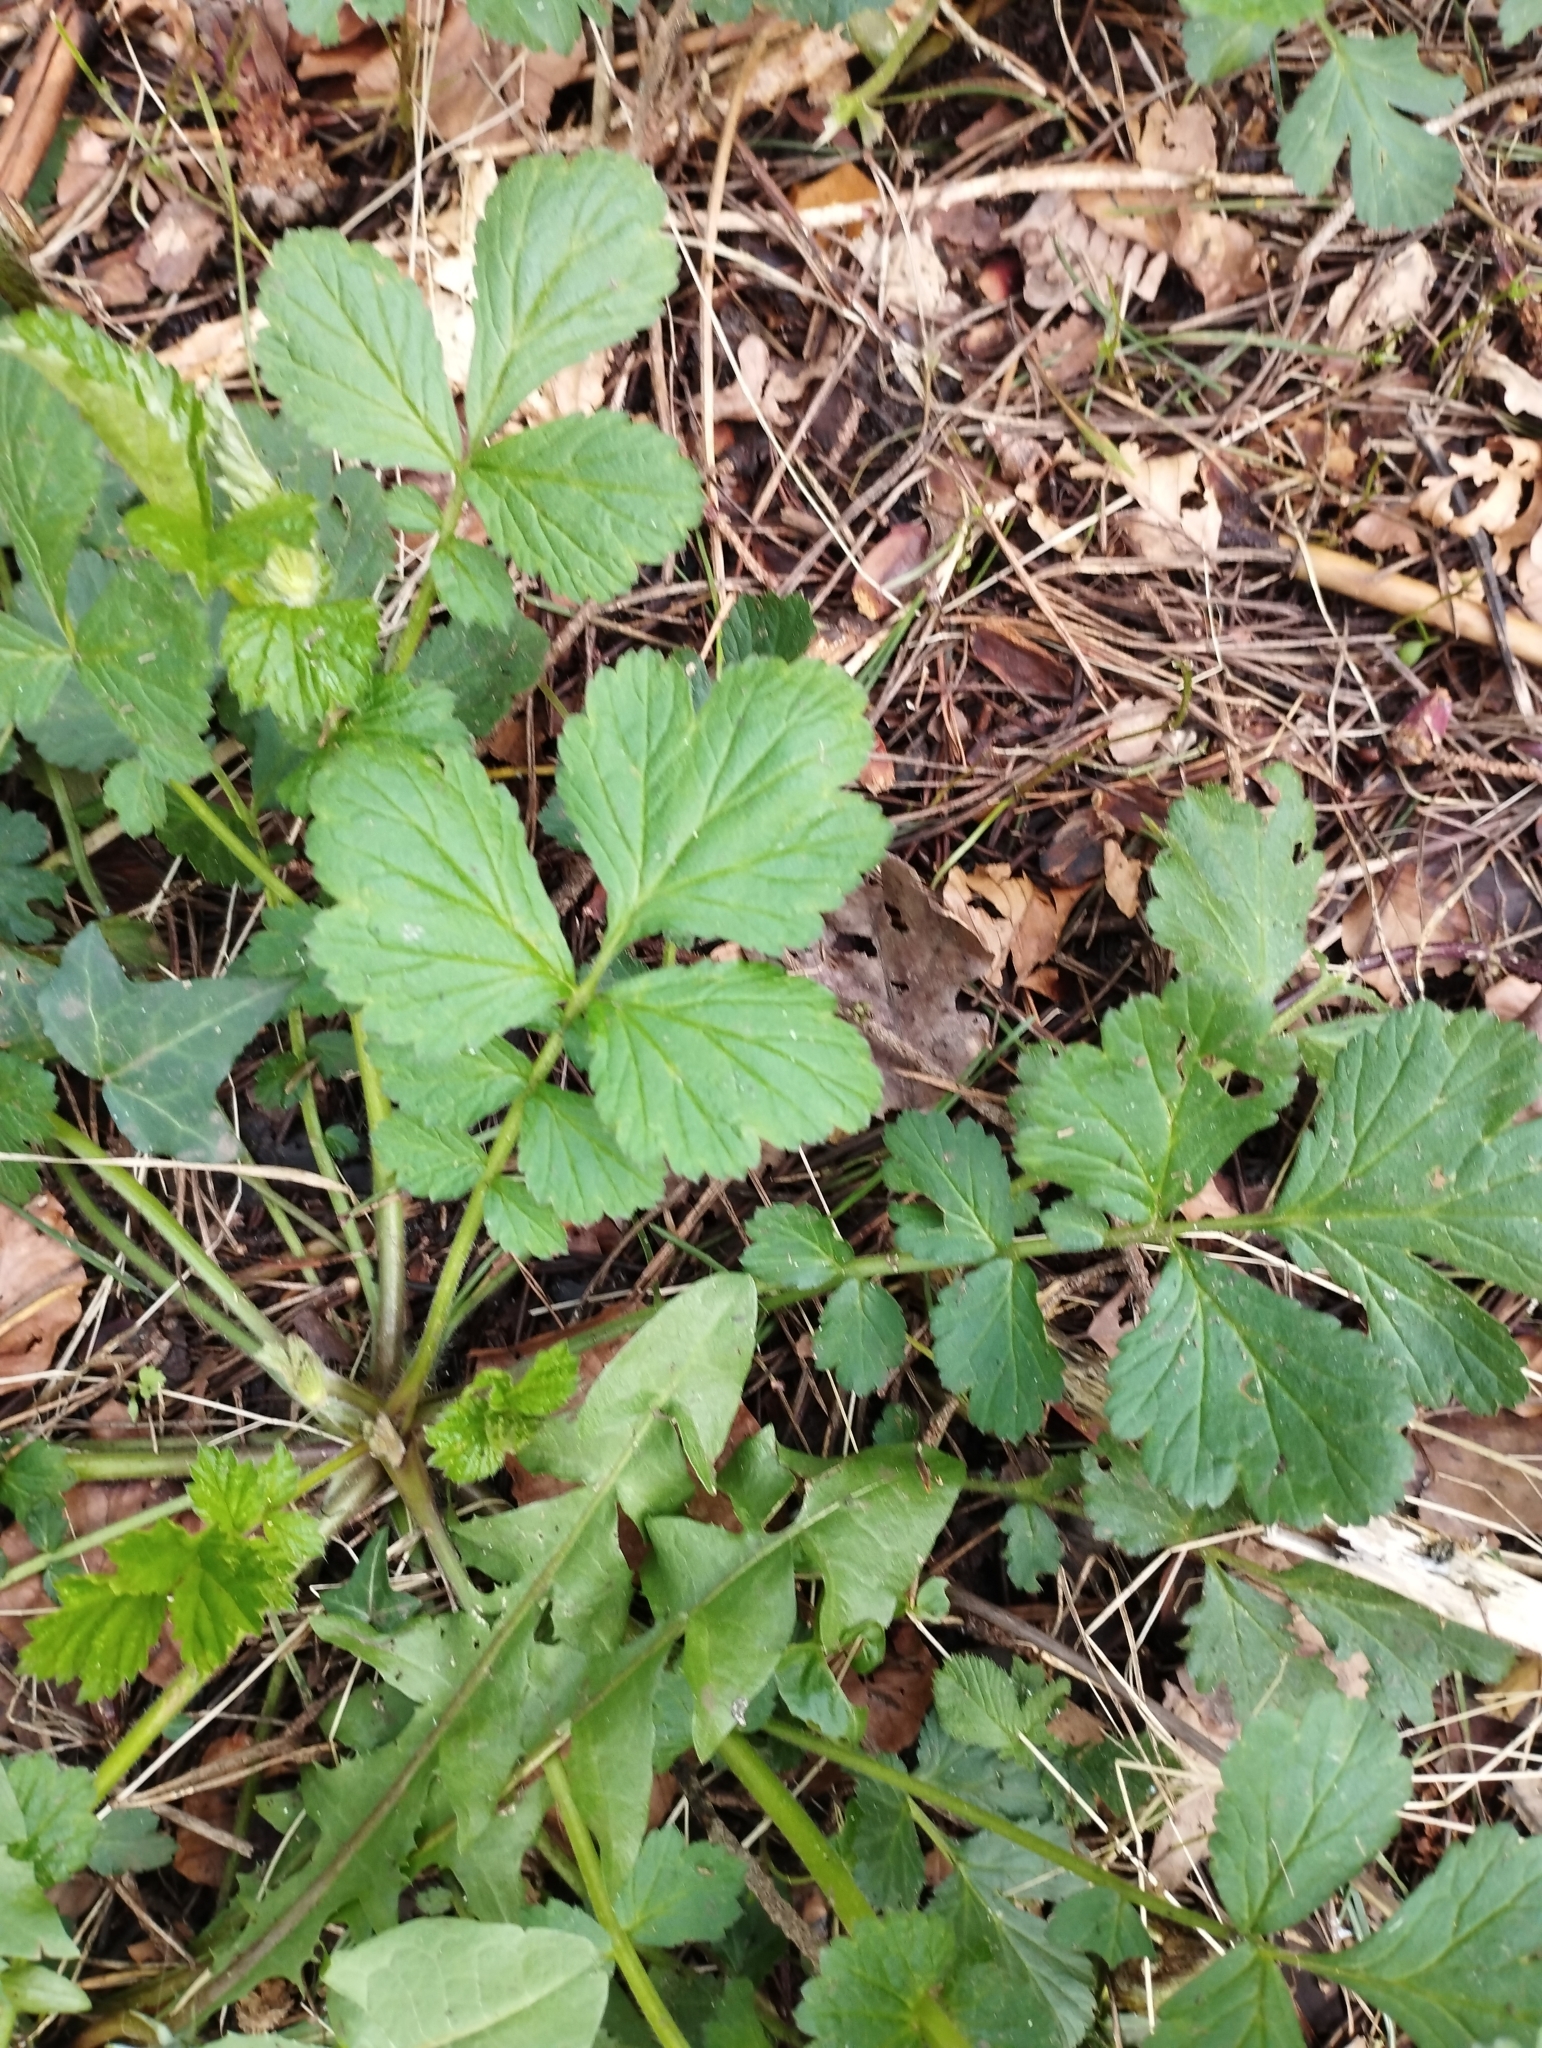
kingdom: Plantae
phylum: Tracheophyta
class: Magnoliopsida
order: Rosales
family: Rosaceae
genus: Geum
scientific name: Geum urbanum
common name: Wood avens
